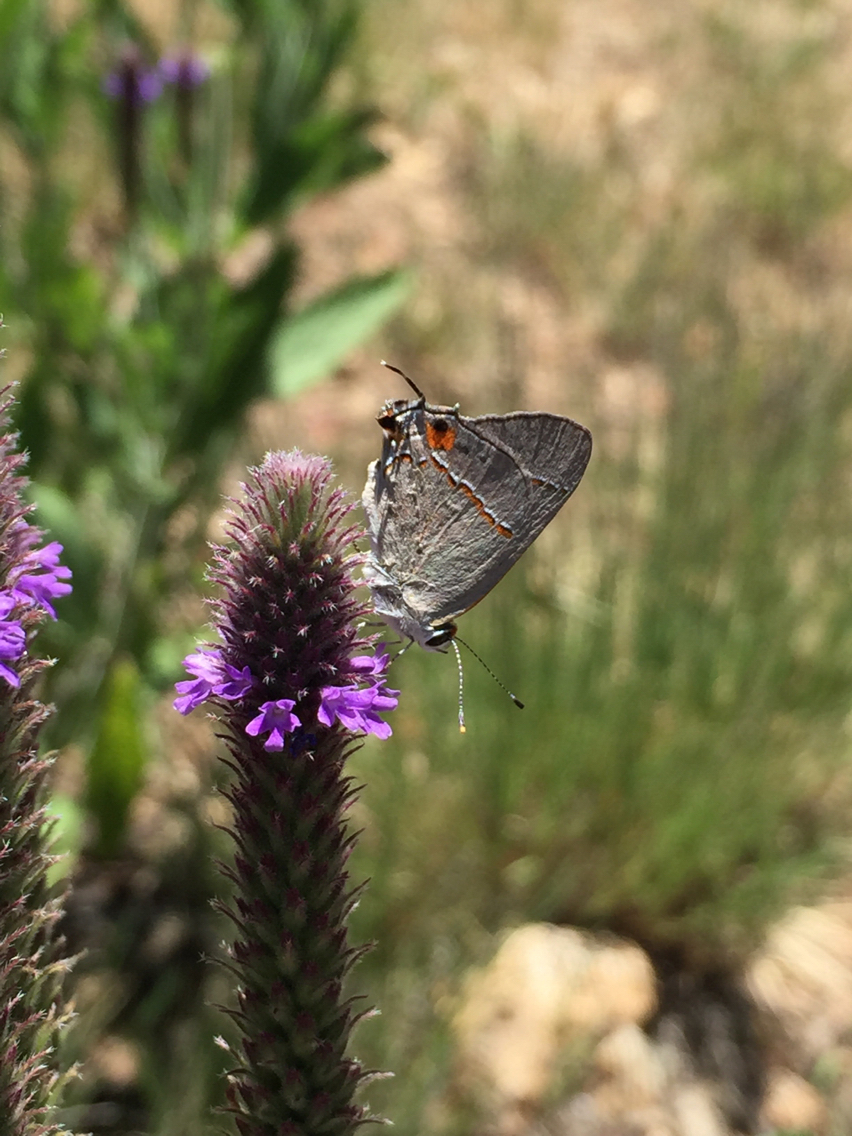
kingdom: Animalia
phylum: Arthropoda
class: Insecta
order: Lepidoptera
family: Lycaenidae
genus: Strymon
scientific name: Strymon melinus
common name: Gray hairstreak
